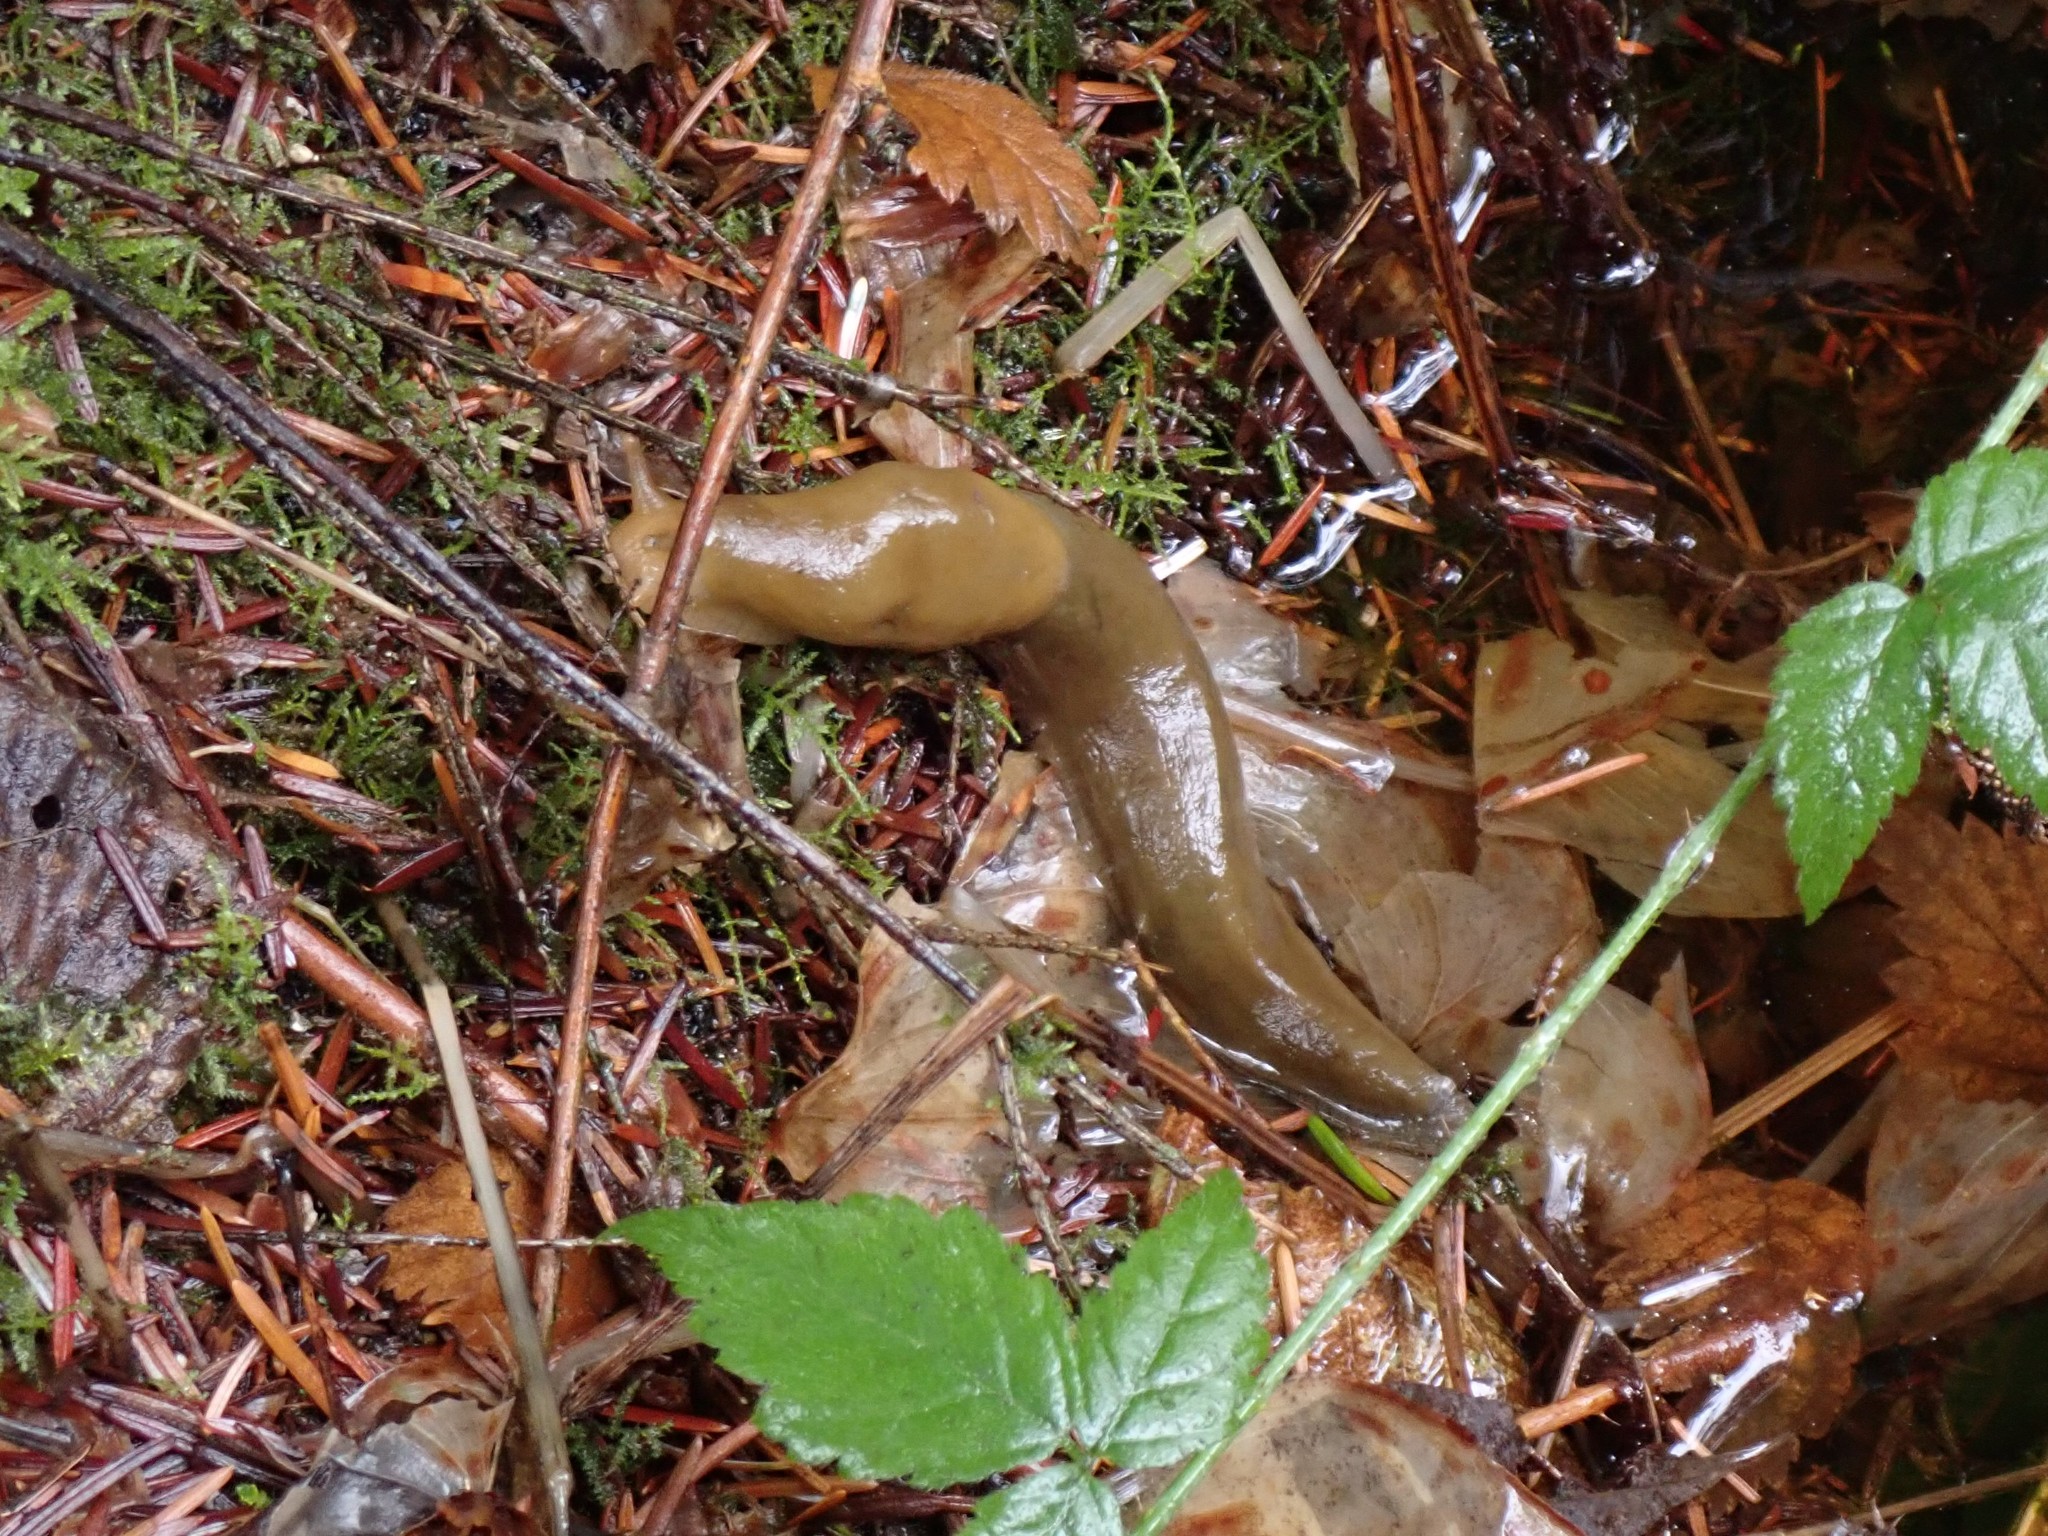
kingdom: Animalia
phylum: Mollusca
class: Gastropoda
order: Stylommatophora
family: Ariolimacidae
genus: Ariolimax
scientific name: Ariolimax columbianus
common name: Pacific banana slug
